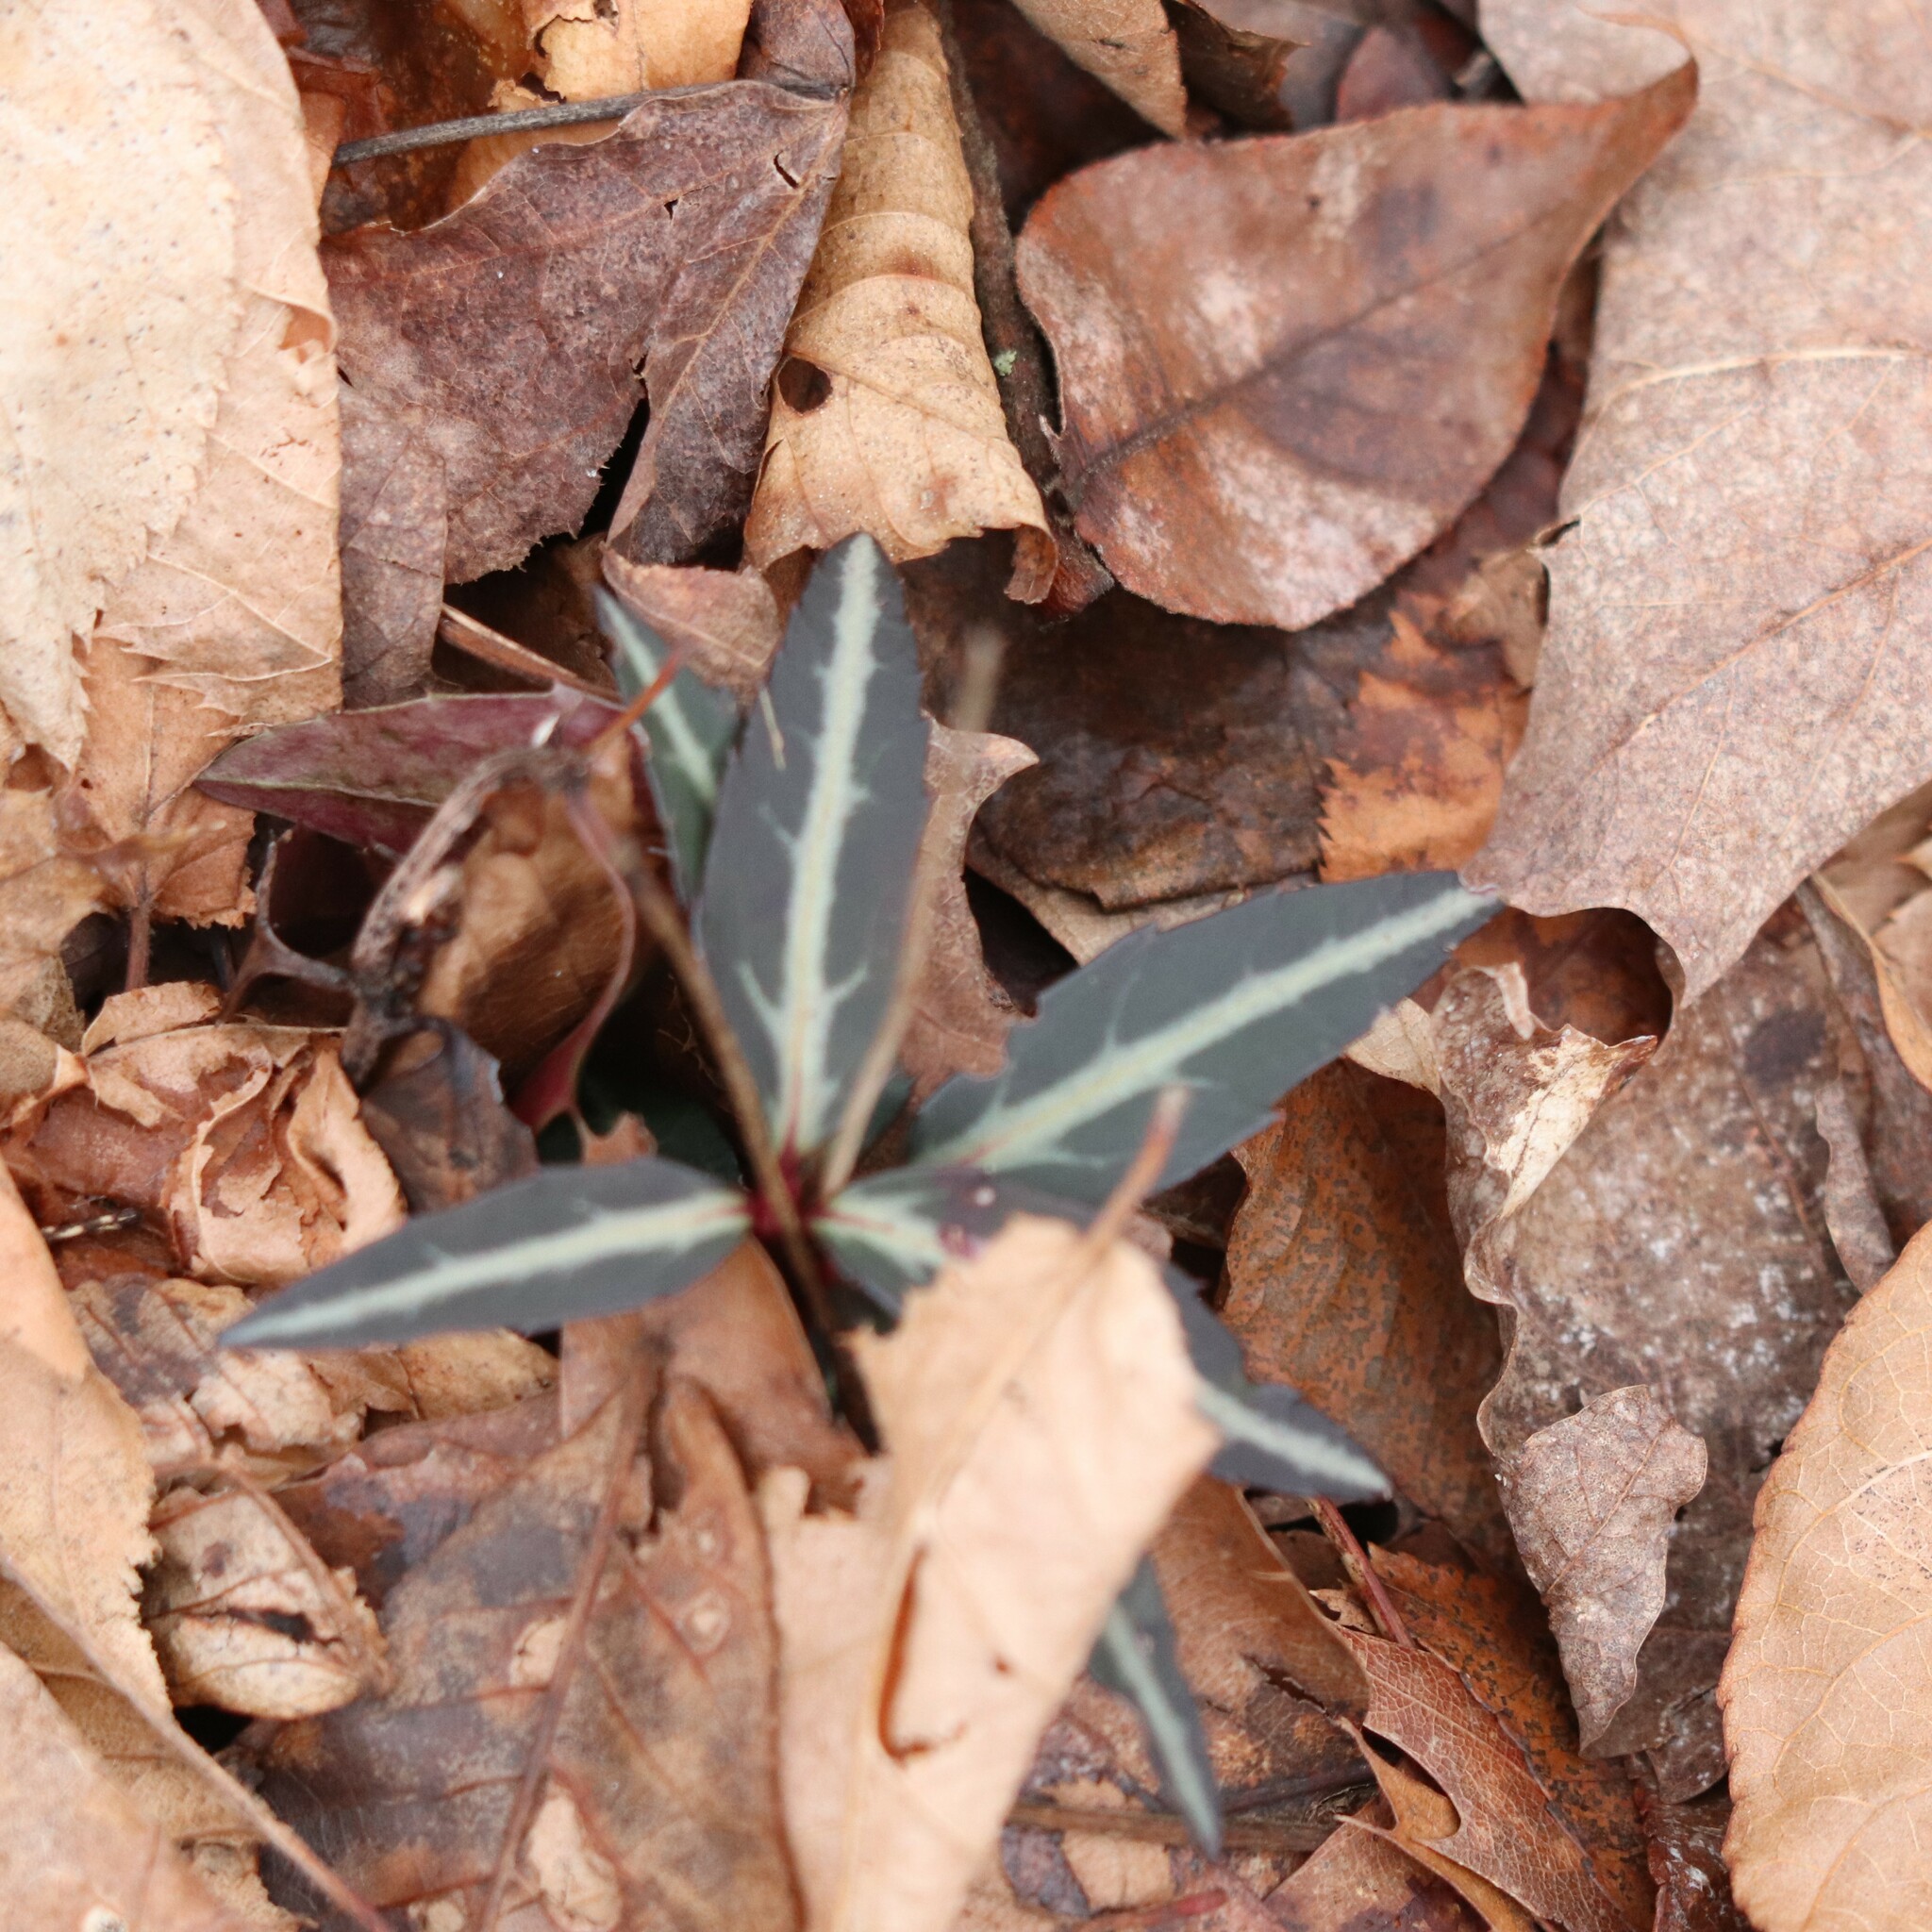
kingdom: Plantae
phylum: Tracheophyta
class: Magnoliopsida
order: Ericales
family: Ericaceae
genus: Chimaphila
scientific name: Chimaphila maculata
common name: Spotted pipsissewa
